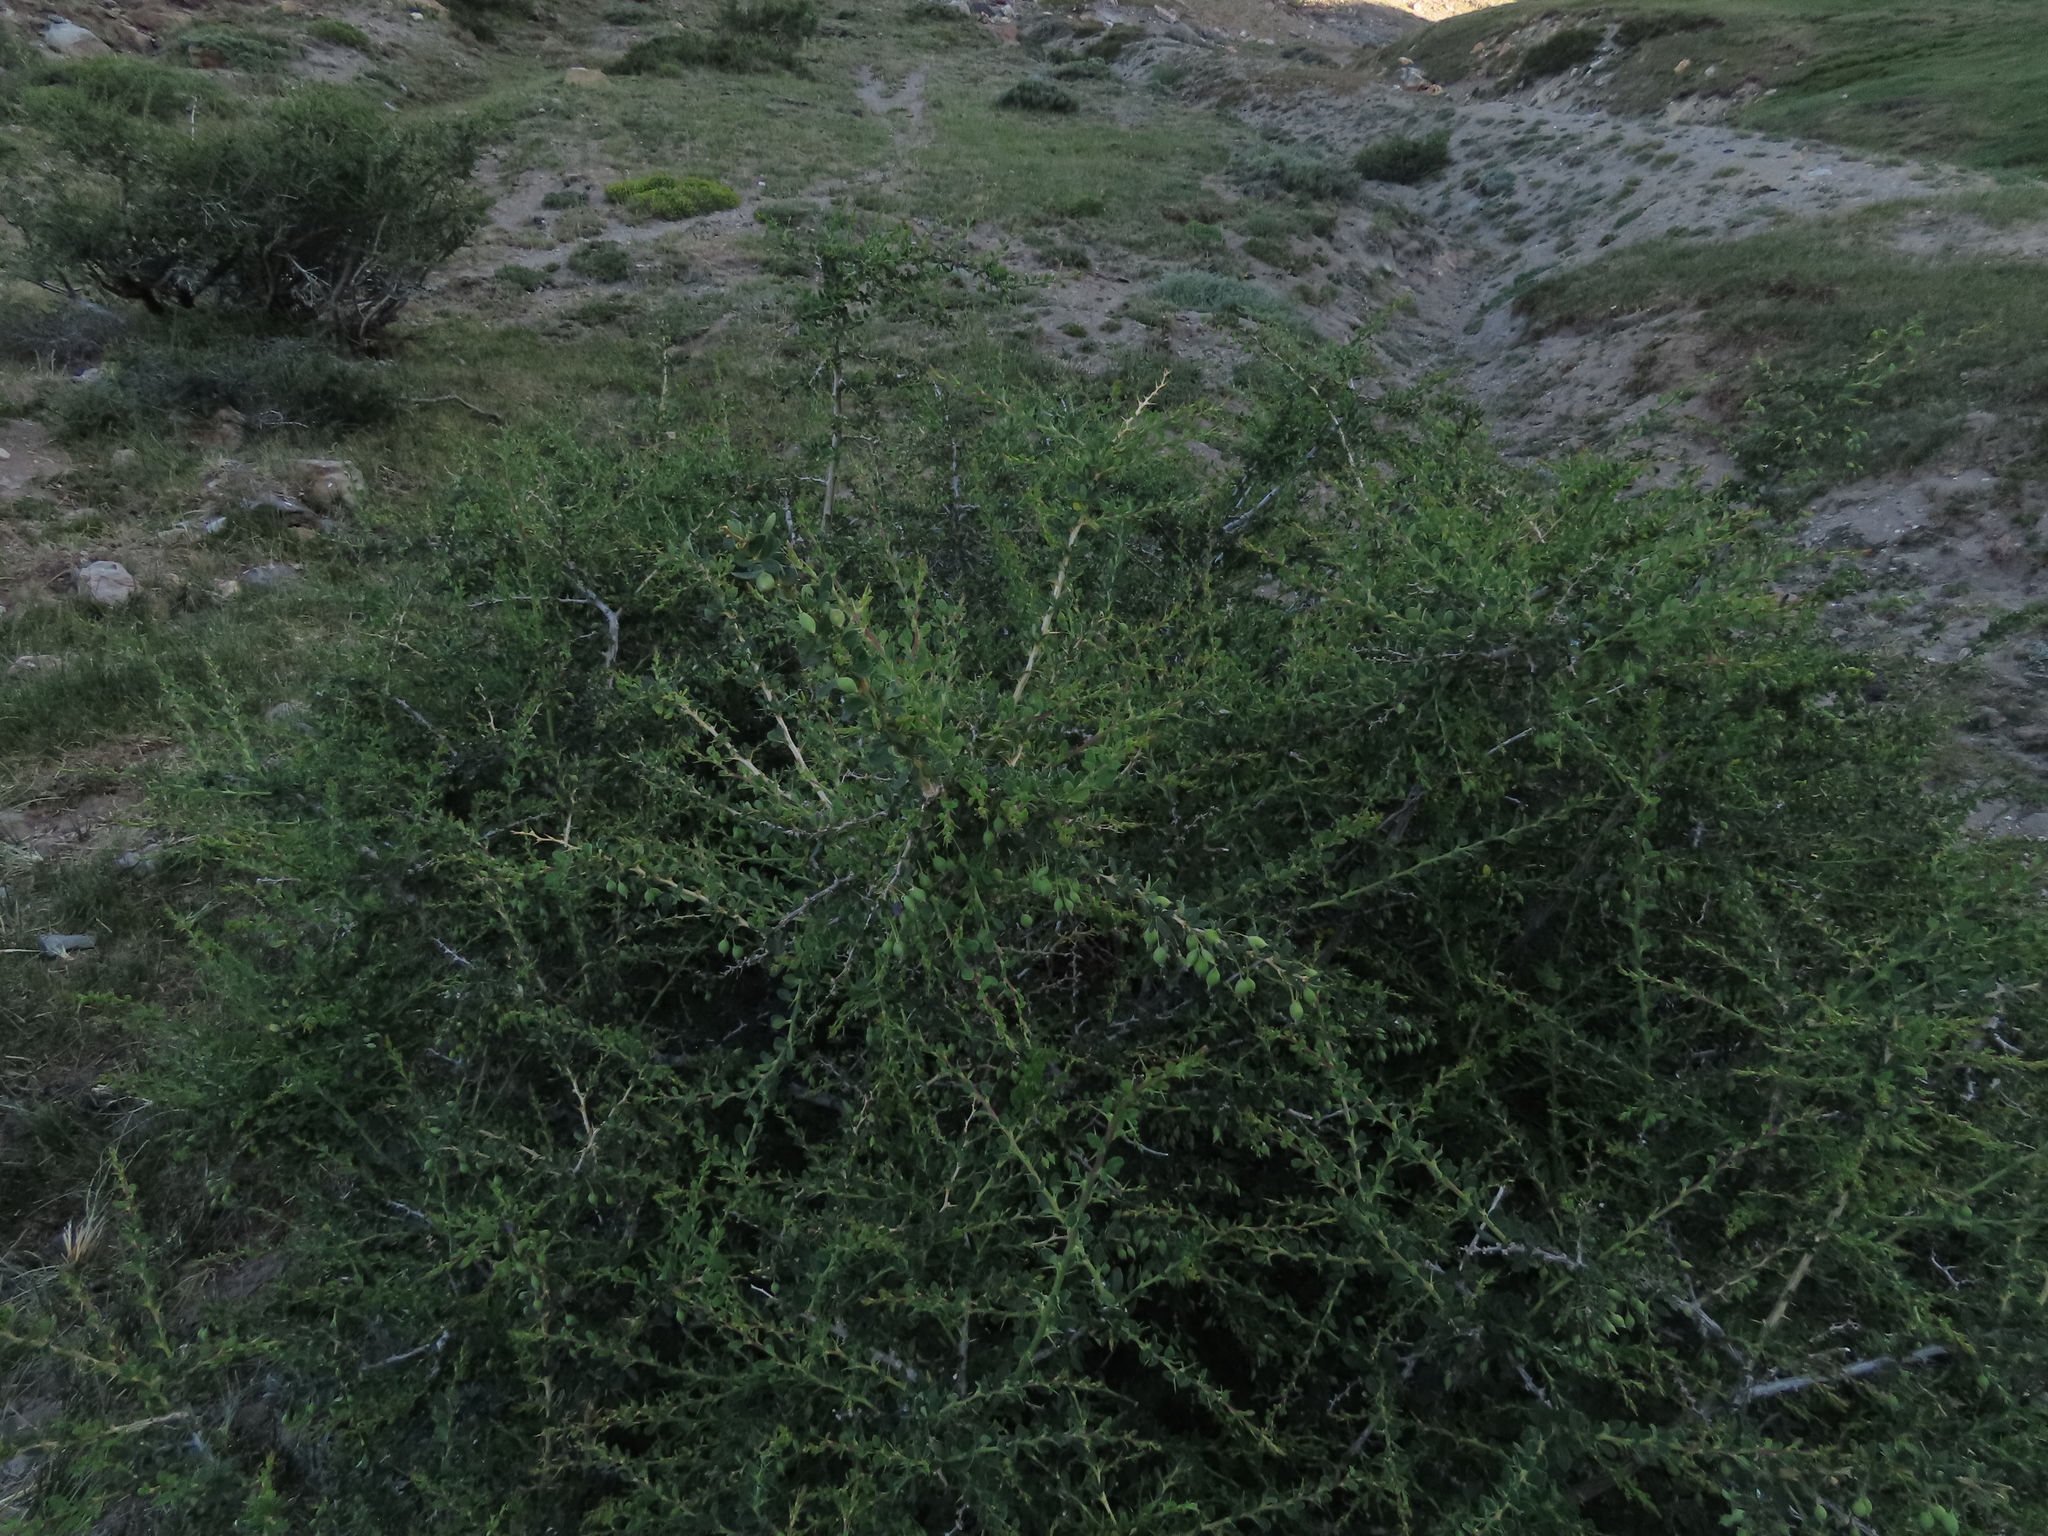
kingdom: Plantae
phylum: Tracheophyta
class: Magnoliopsida
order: Ranunculales
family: Berberidaceae
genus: Berberis
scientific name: Berberis montana
